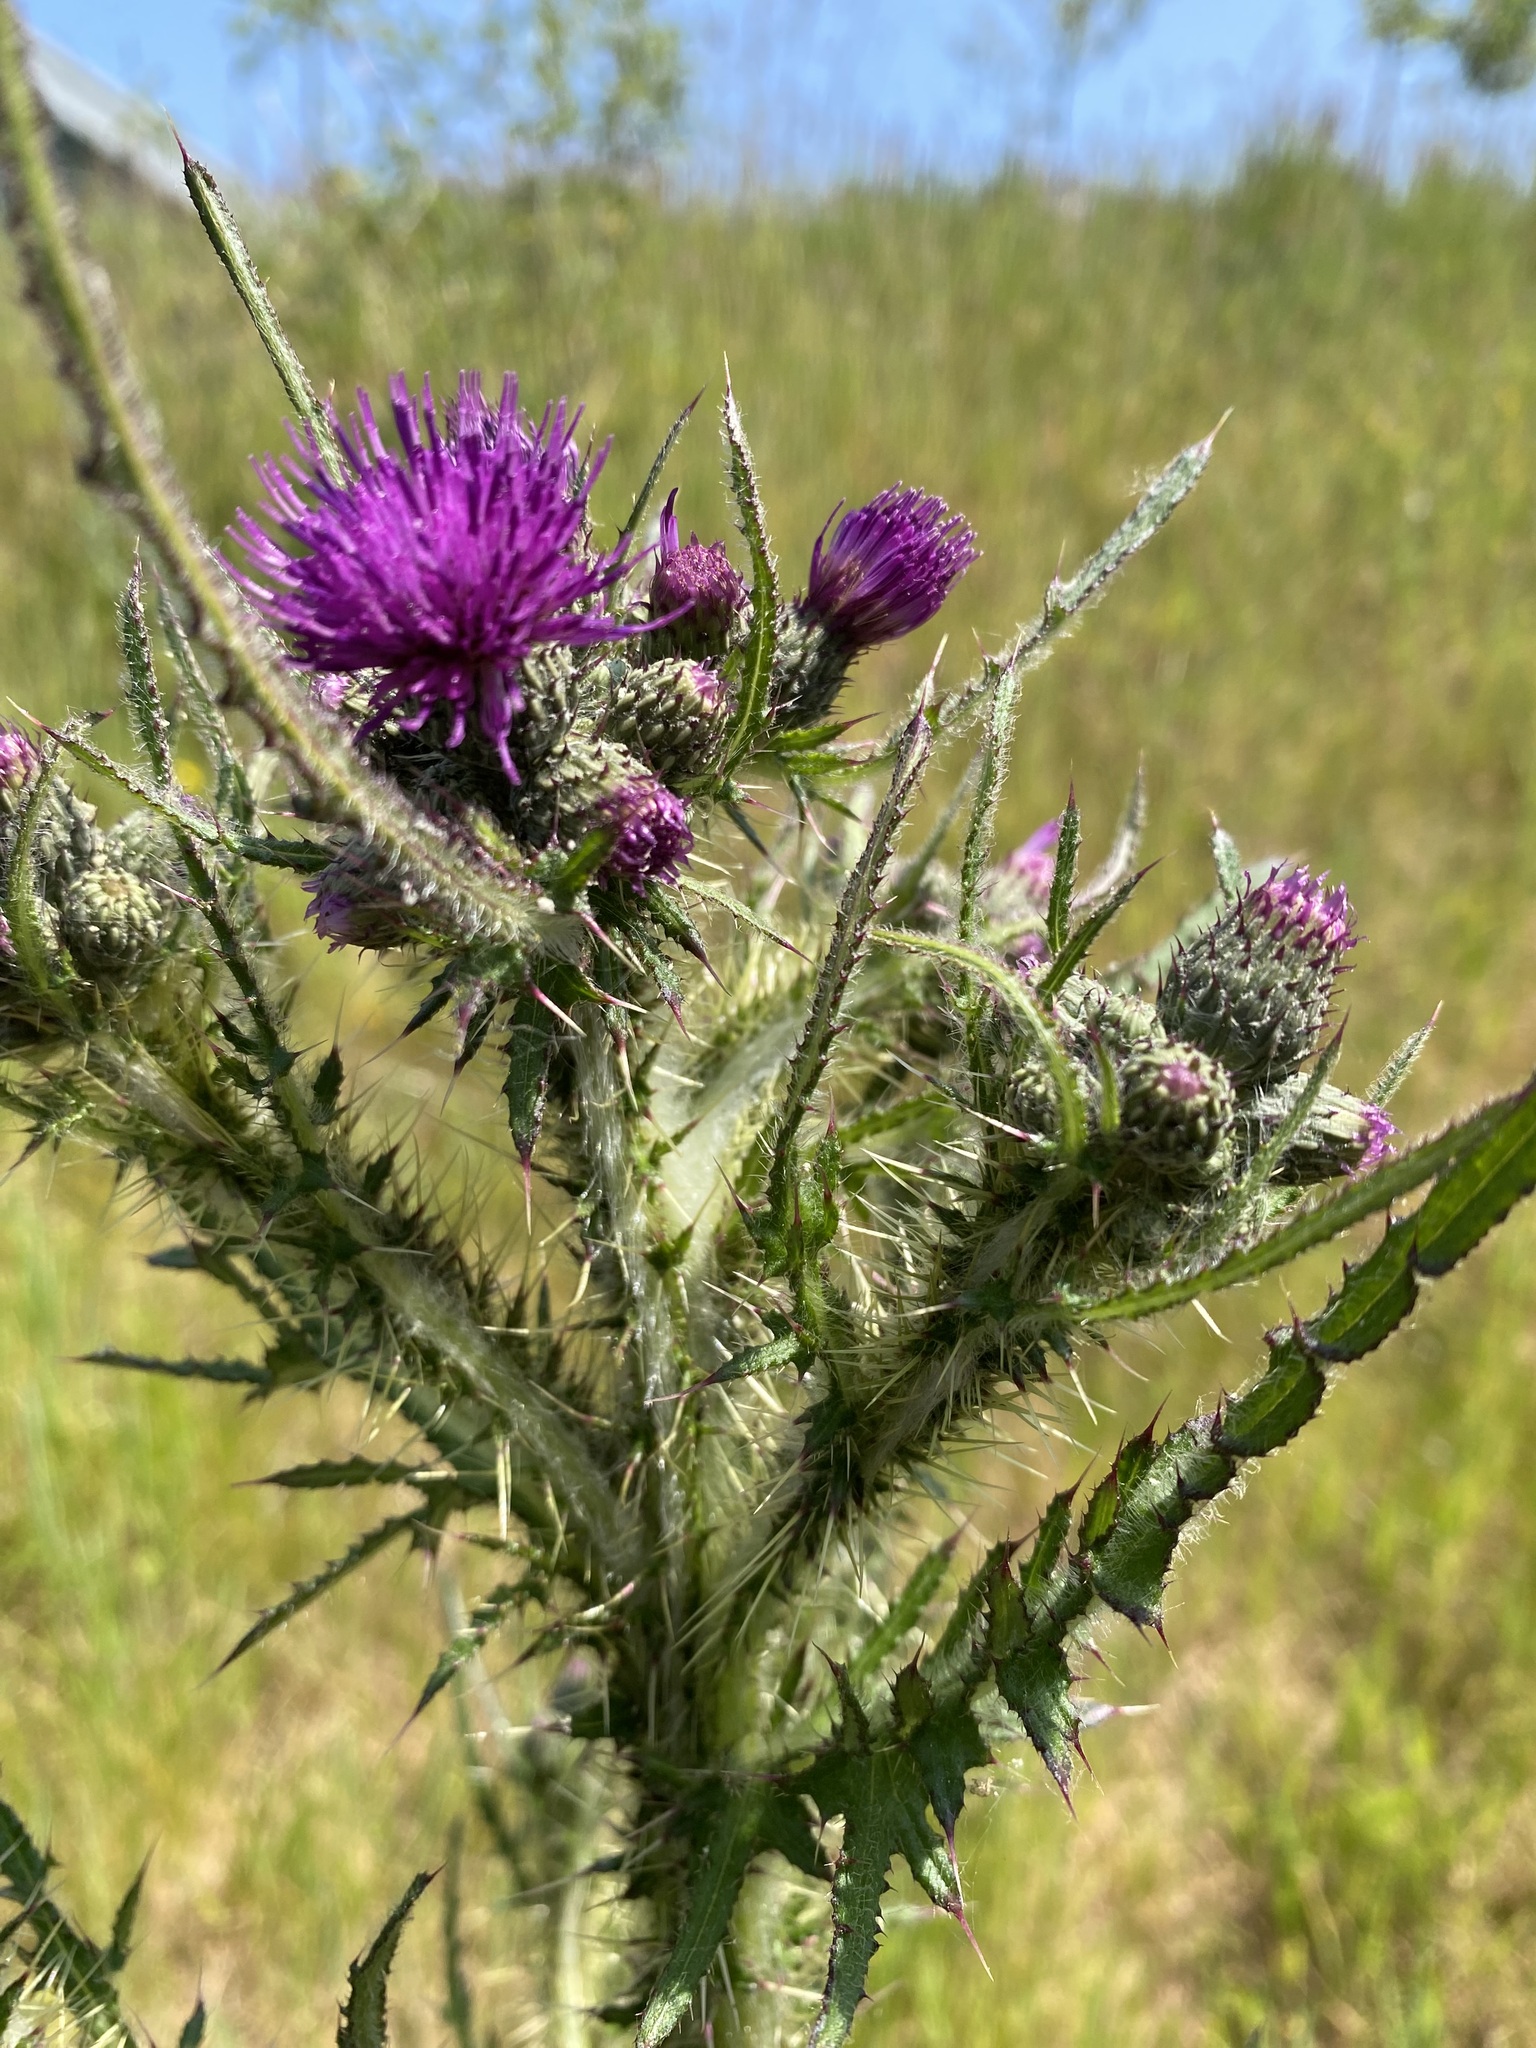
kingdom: Plantae
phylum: Tracheophyta
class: Magnoliopsida
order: Asterales
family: Asteraceae
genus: Cirsium
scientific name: Cirsium palustre
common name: Marsh thistle
